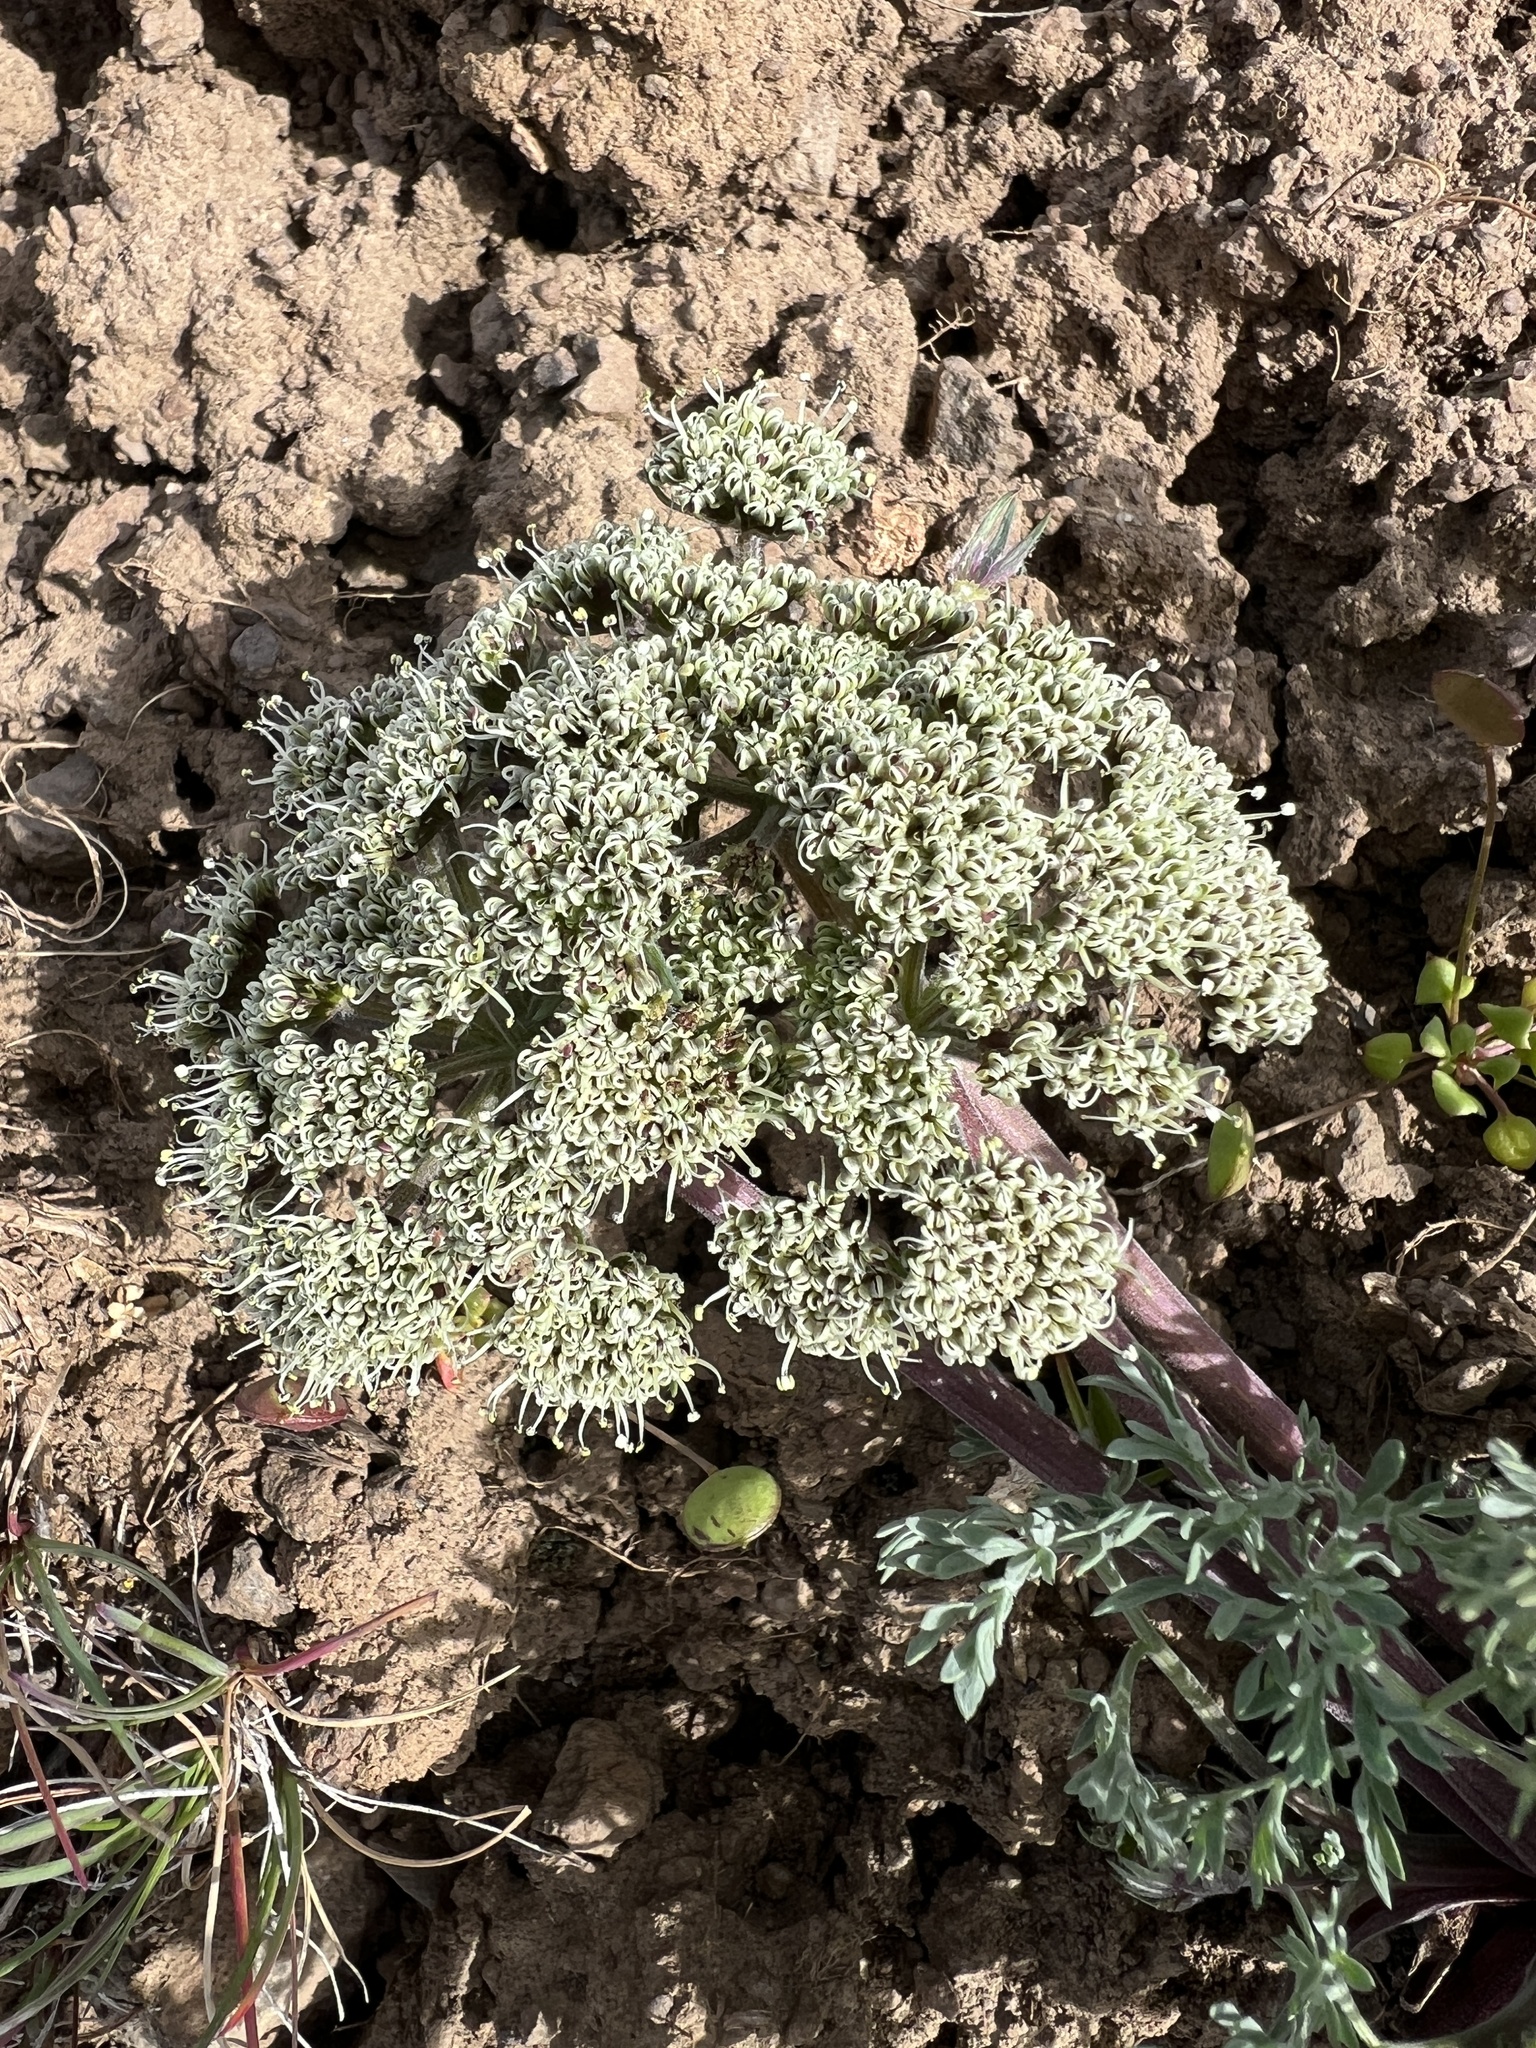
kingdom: Plantae
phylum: Tracheophyta
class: Magnoliopsida
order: Apiales
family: Apiaceae
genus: Lomatium
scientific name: Lomatium macrocarpum
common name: Big-seed biscuitroot
